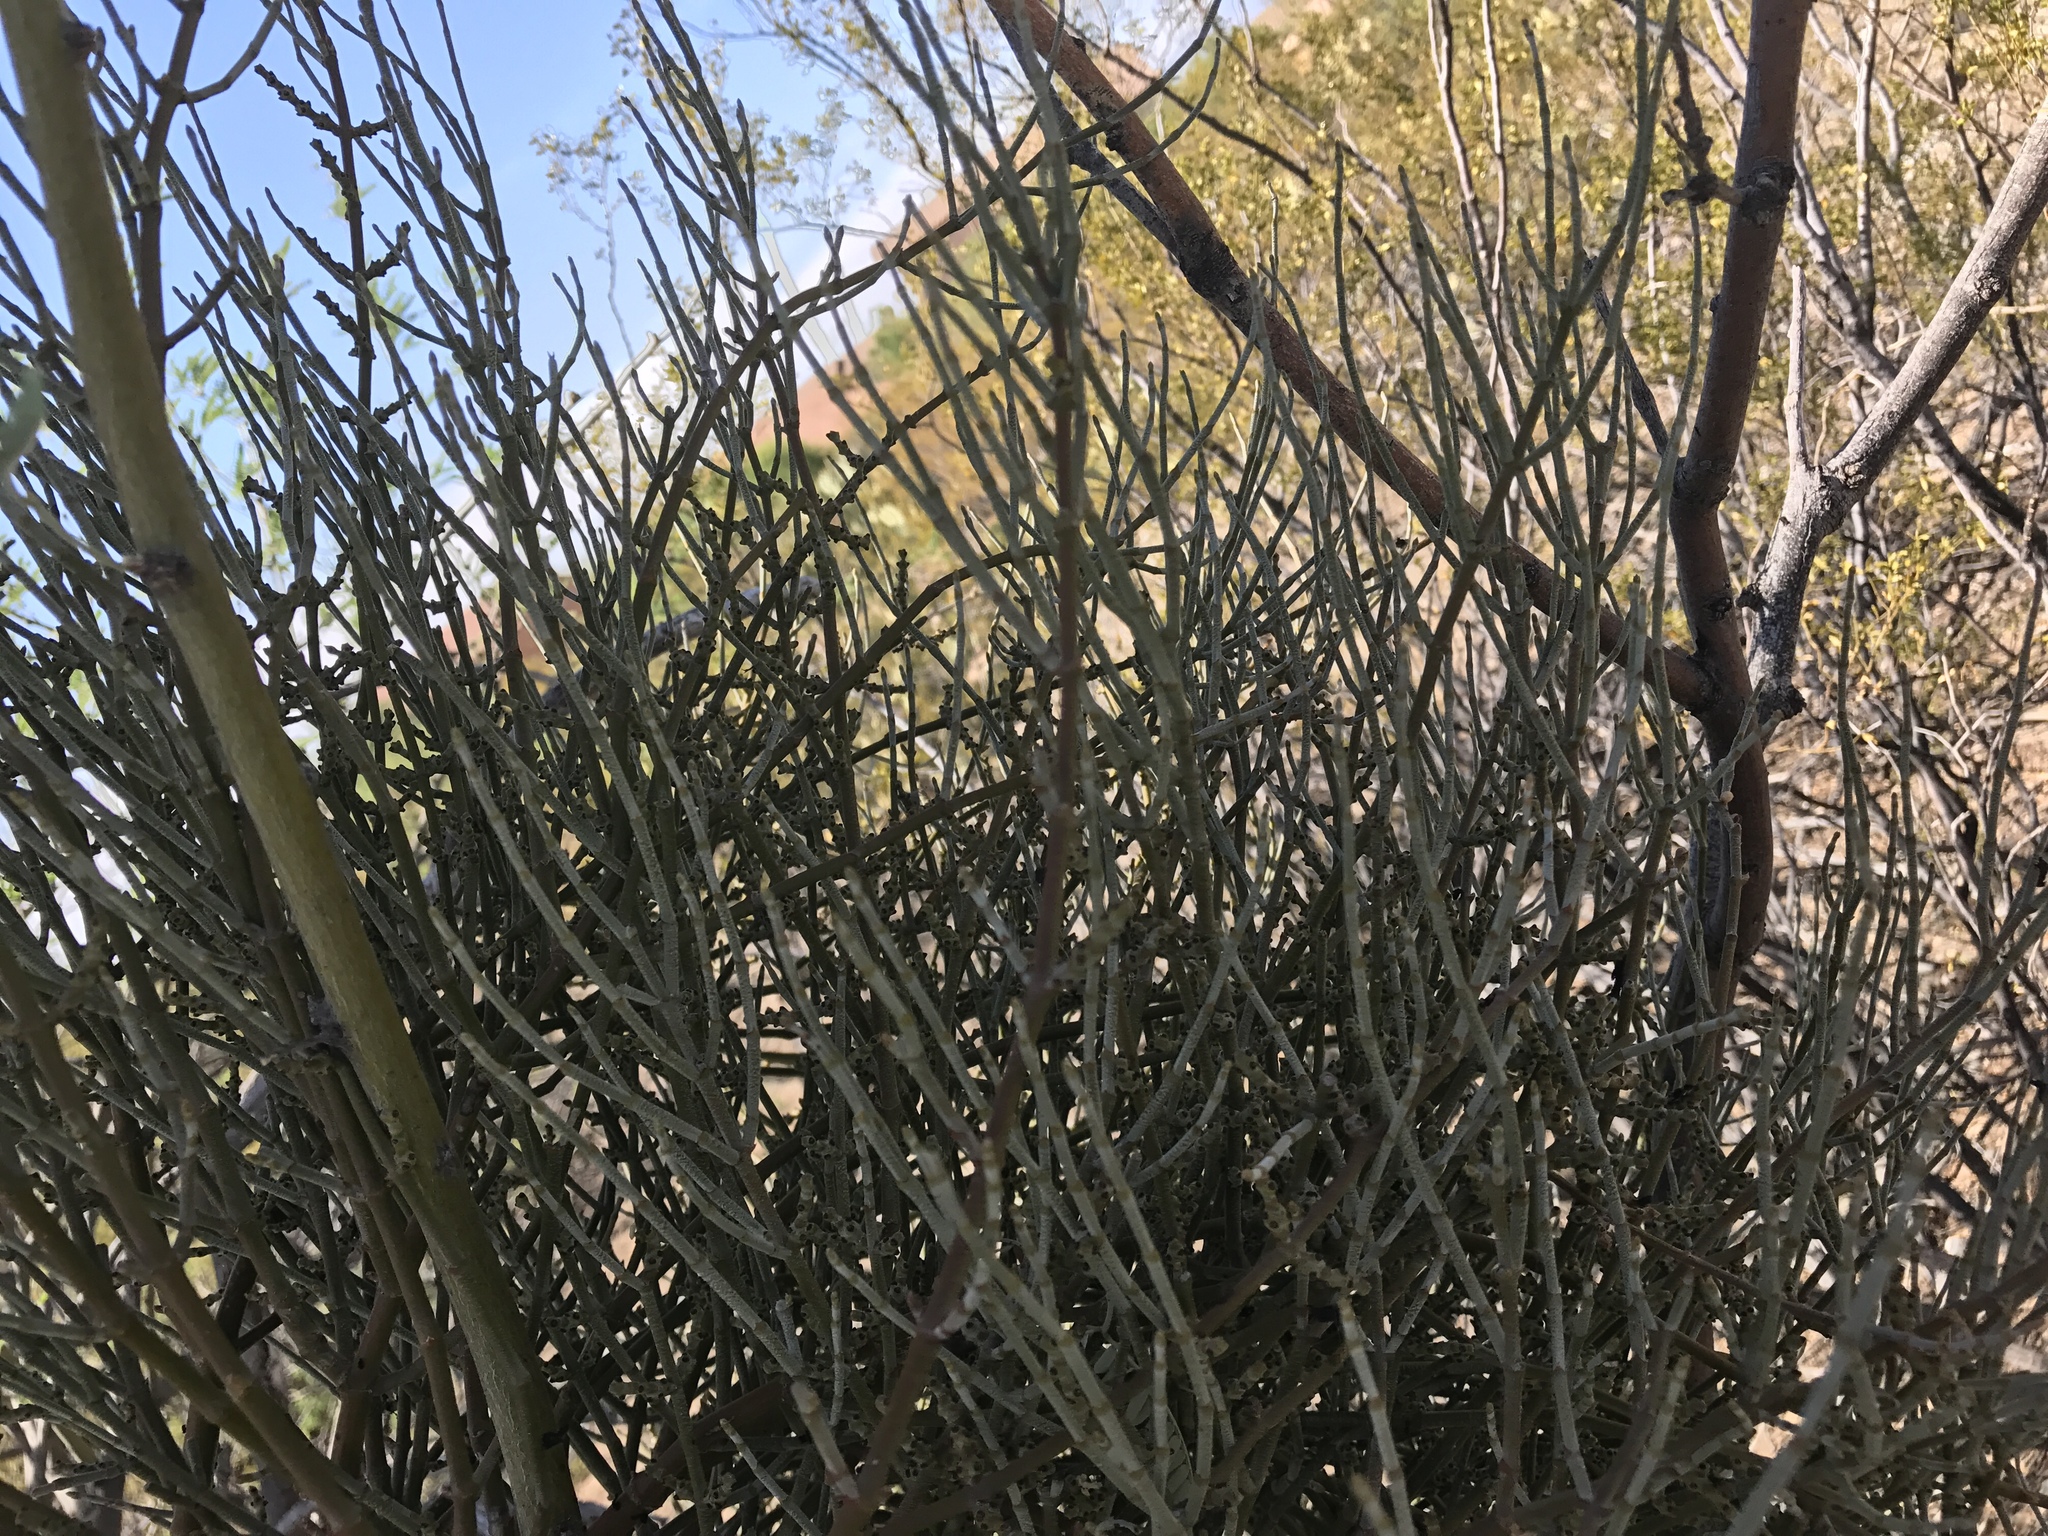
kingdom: Plantae
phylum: Tracheophyta
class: Magnoliopsida
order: Santalales
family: Viscaceae
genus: Phoradendron
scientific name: Phoradendron californicum
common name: Acacia mistletoe
